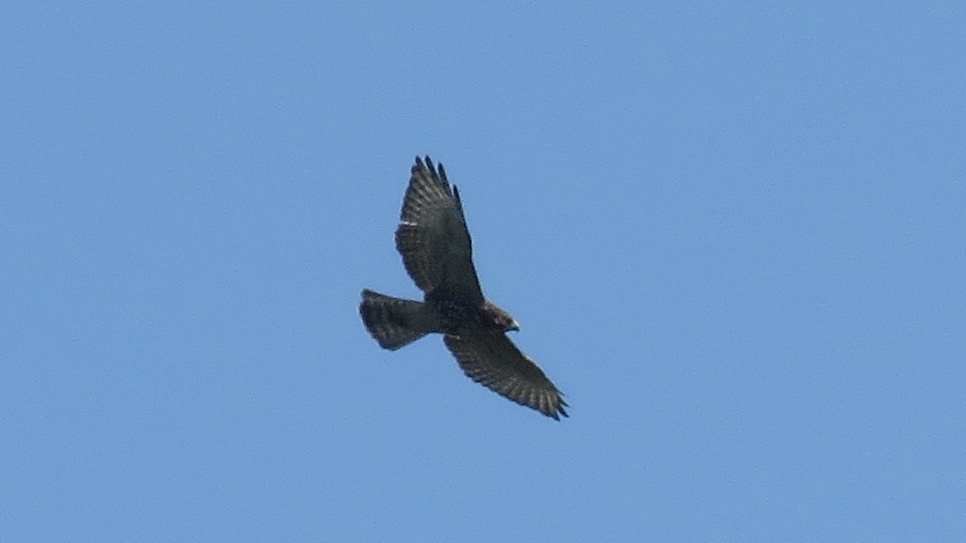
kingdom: Animalia
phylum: Chordata
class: Aves
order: Accipitriformes
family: Accipitridae
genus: Buteo
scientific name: Buteo platypterus
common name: Broad-winged hawk
